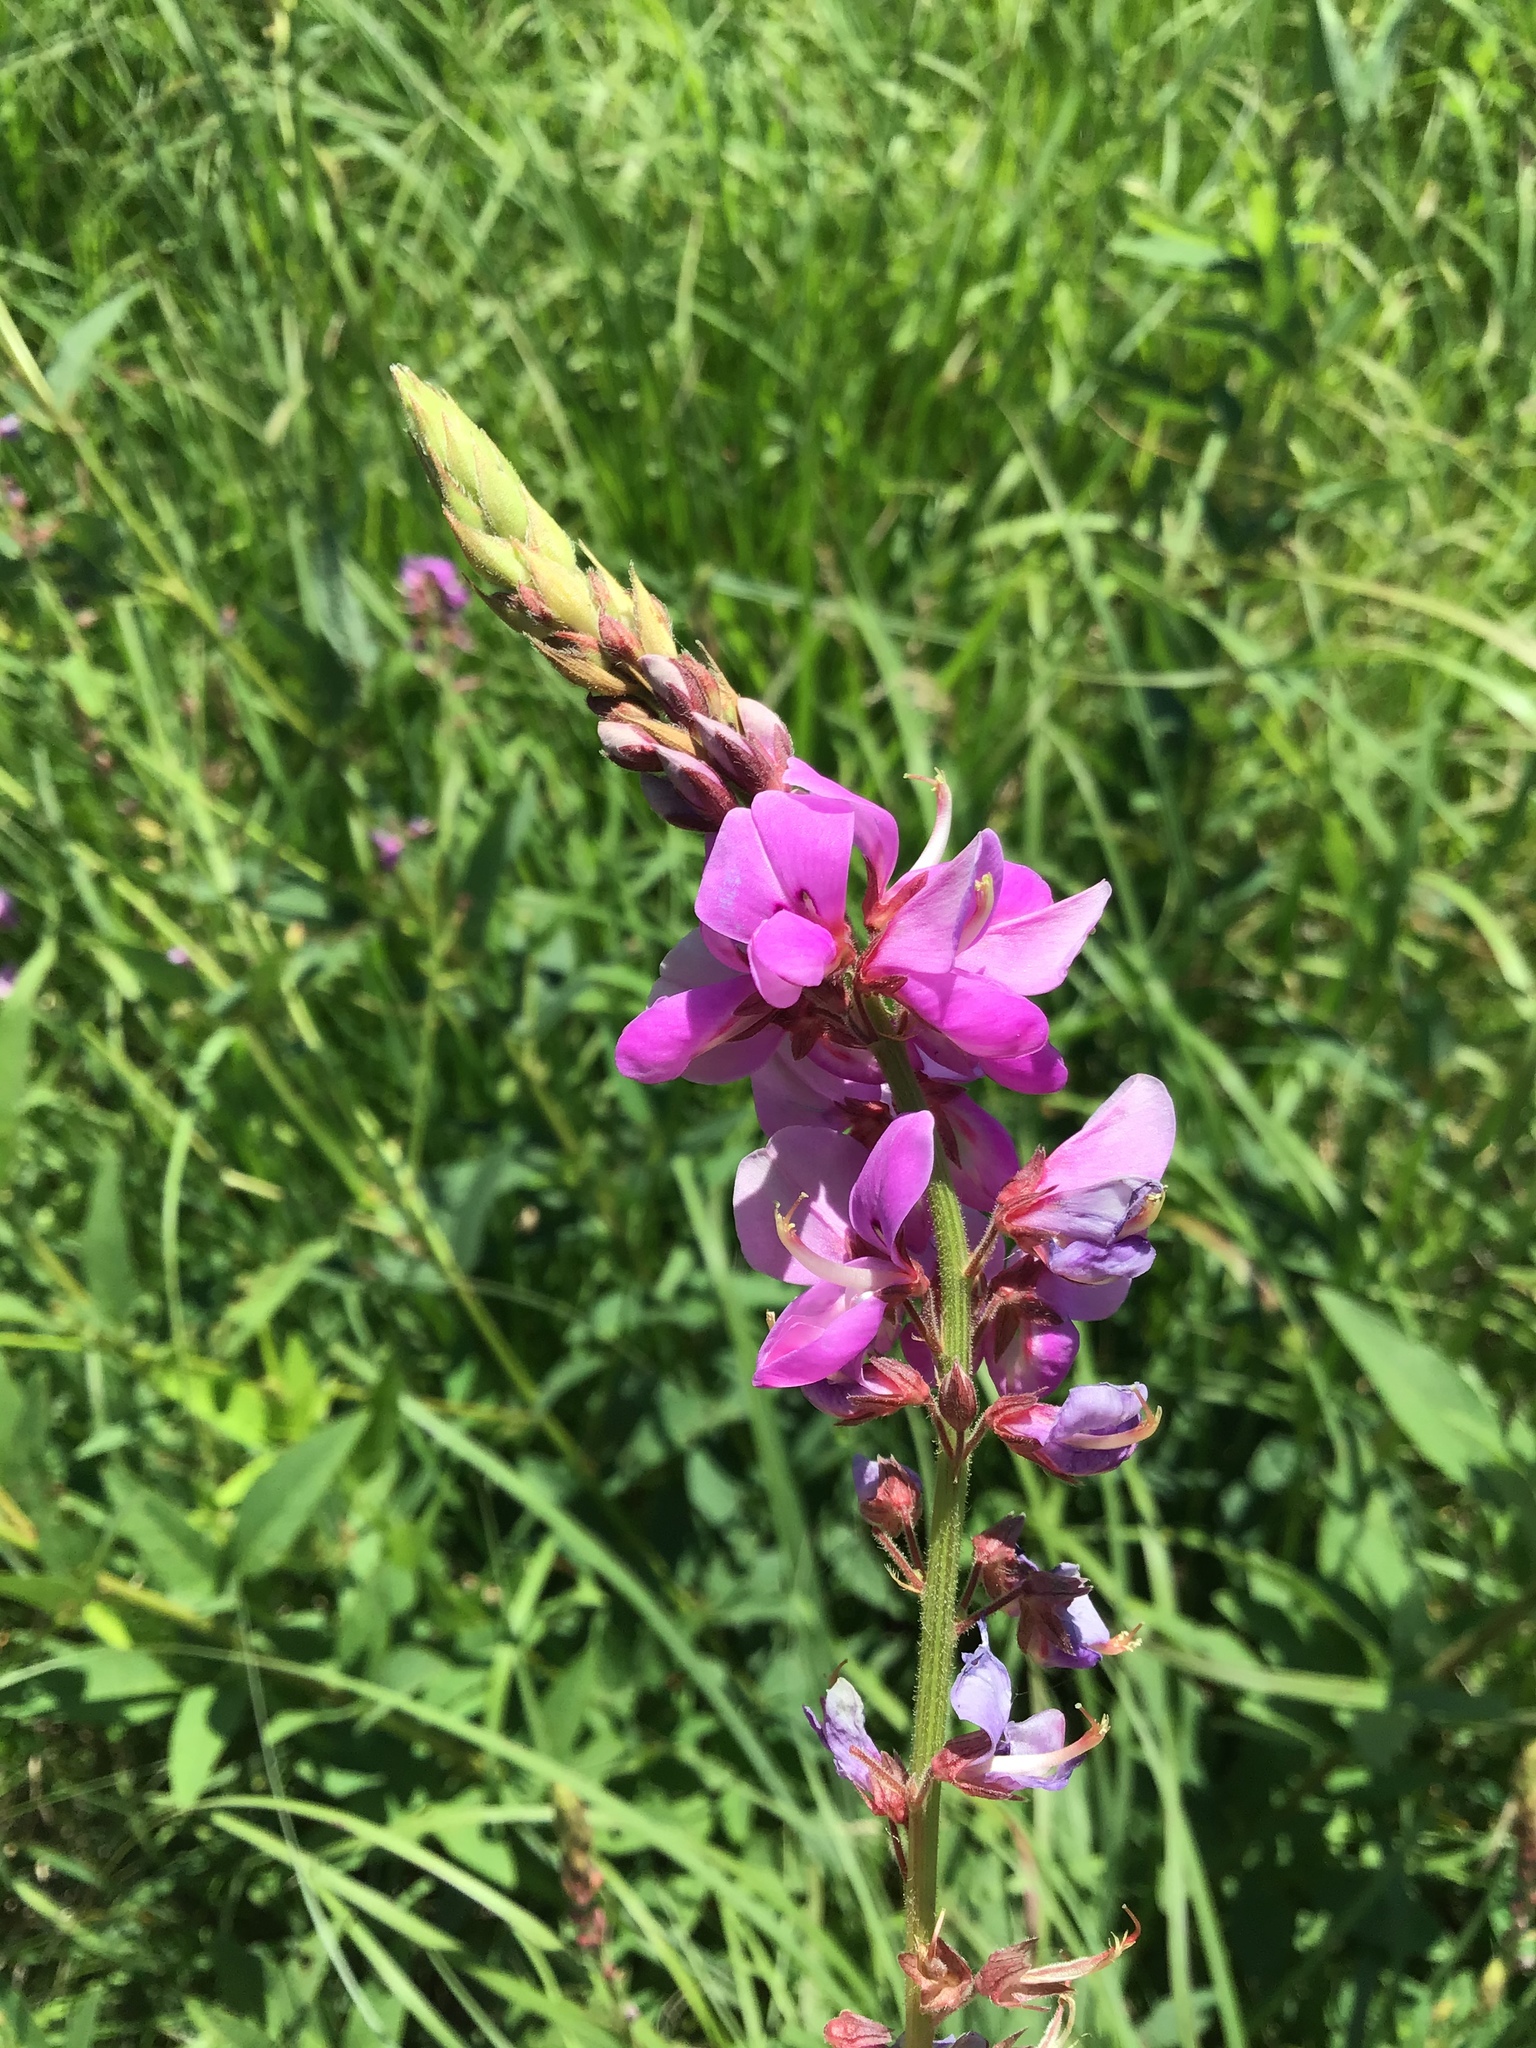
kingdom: Plantae
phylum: Tracheophyta
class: Magnoliopsida
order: Fabales
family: Fabaceae
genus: Desmodium
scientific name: Desmodium canadense
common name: Canada tick-trefoil
